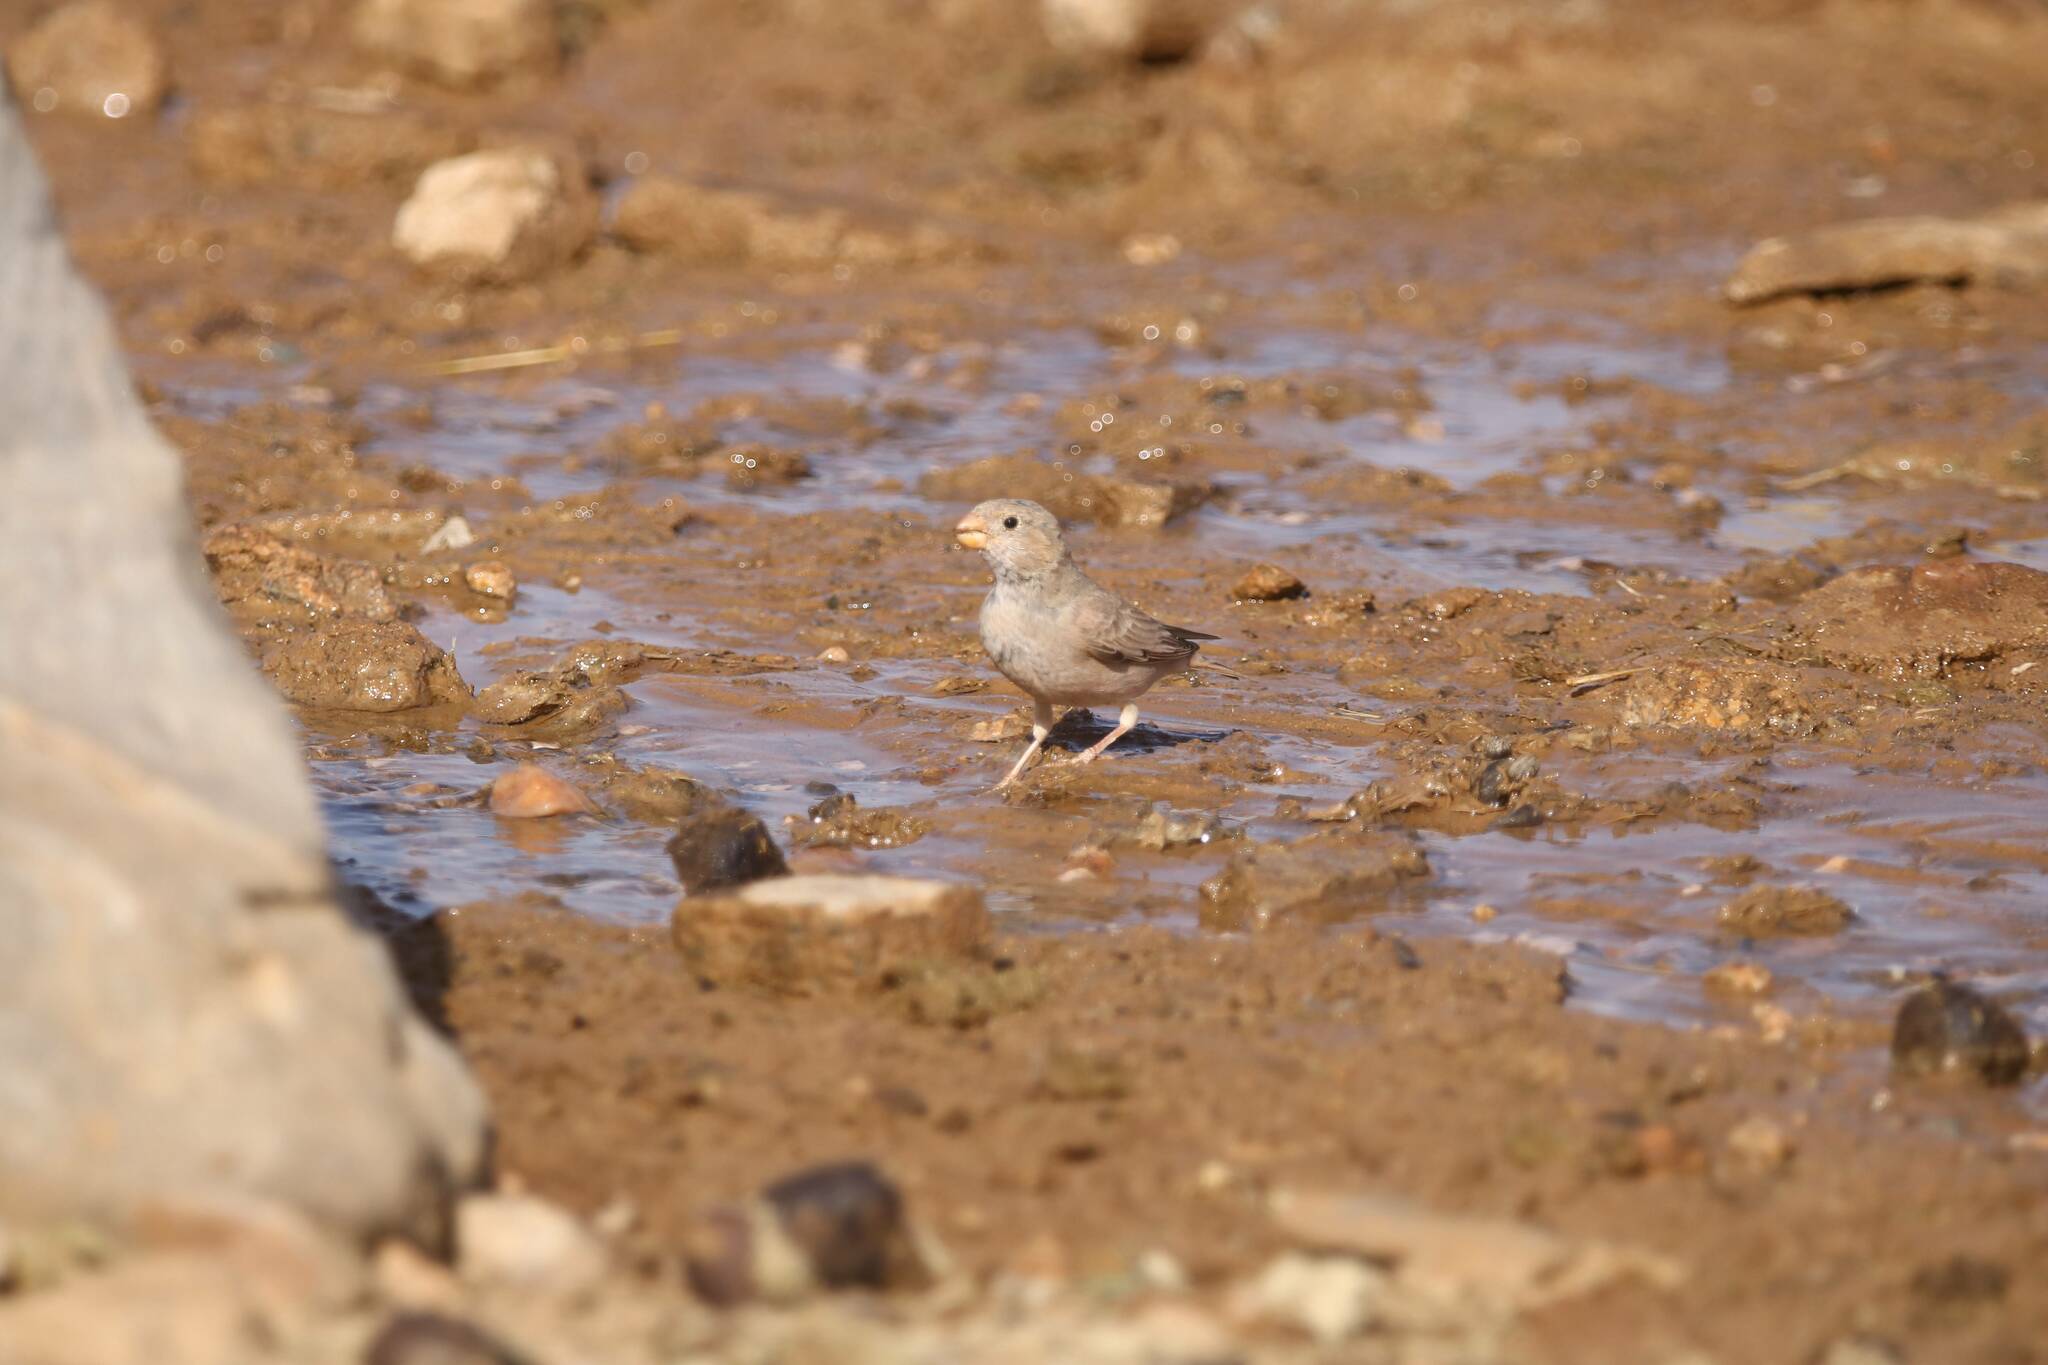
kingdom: Animalia
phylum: Chordata
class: Aves
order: Passeriformes
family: Fringillidae
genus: Bucanetes
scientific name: Bucanetes githagineus
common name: Trumpeter finch
